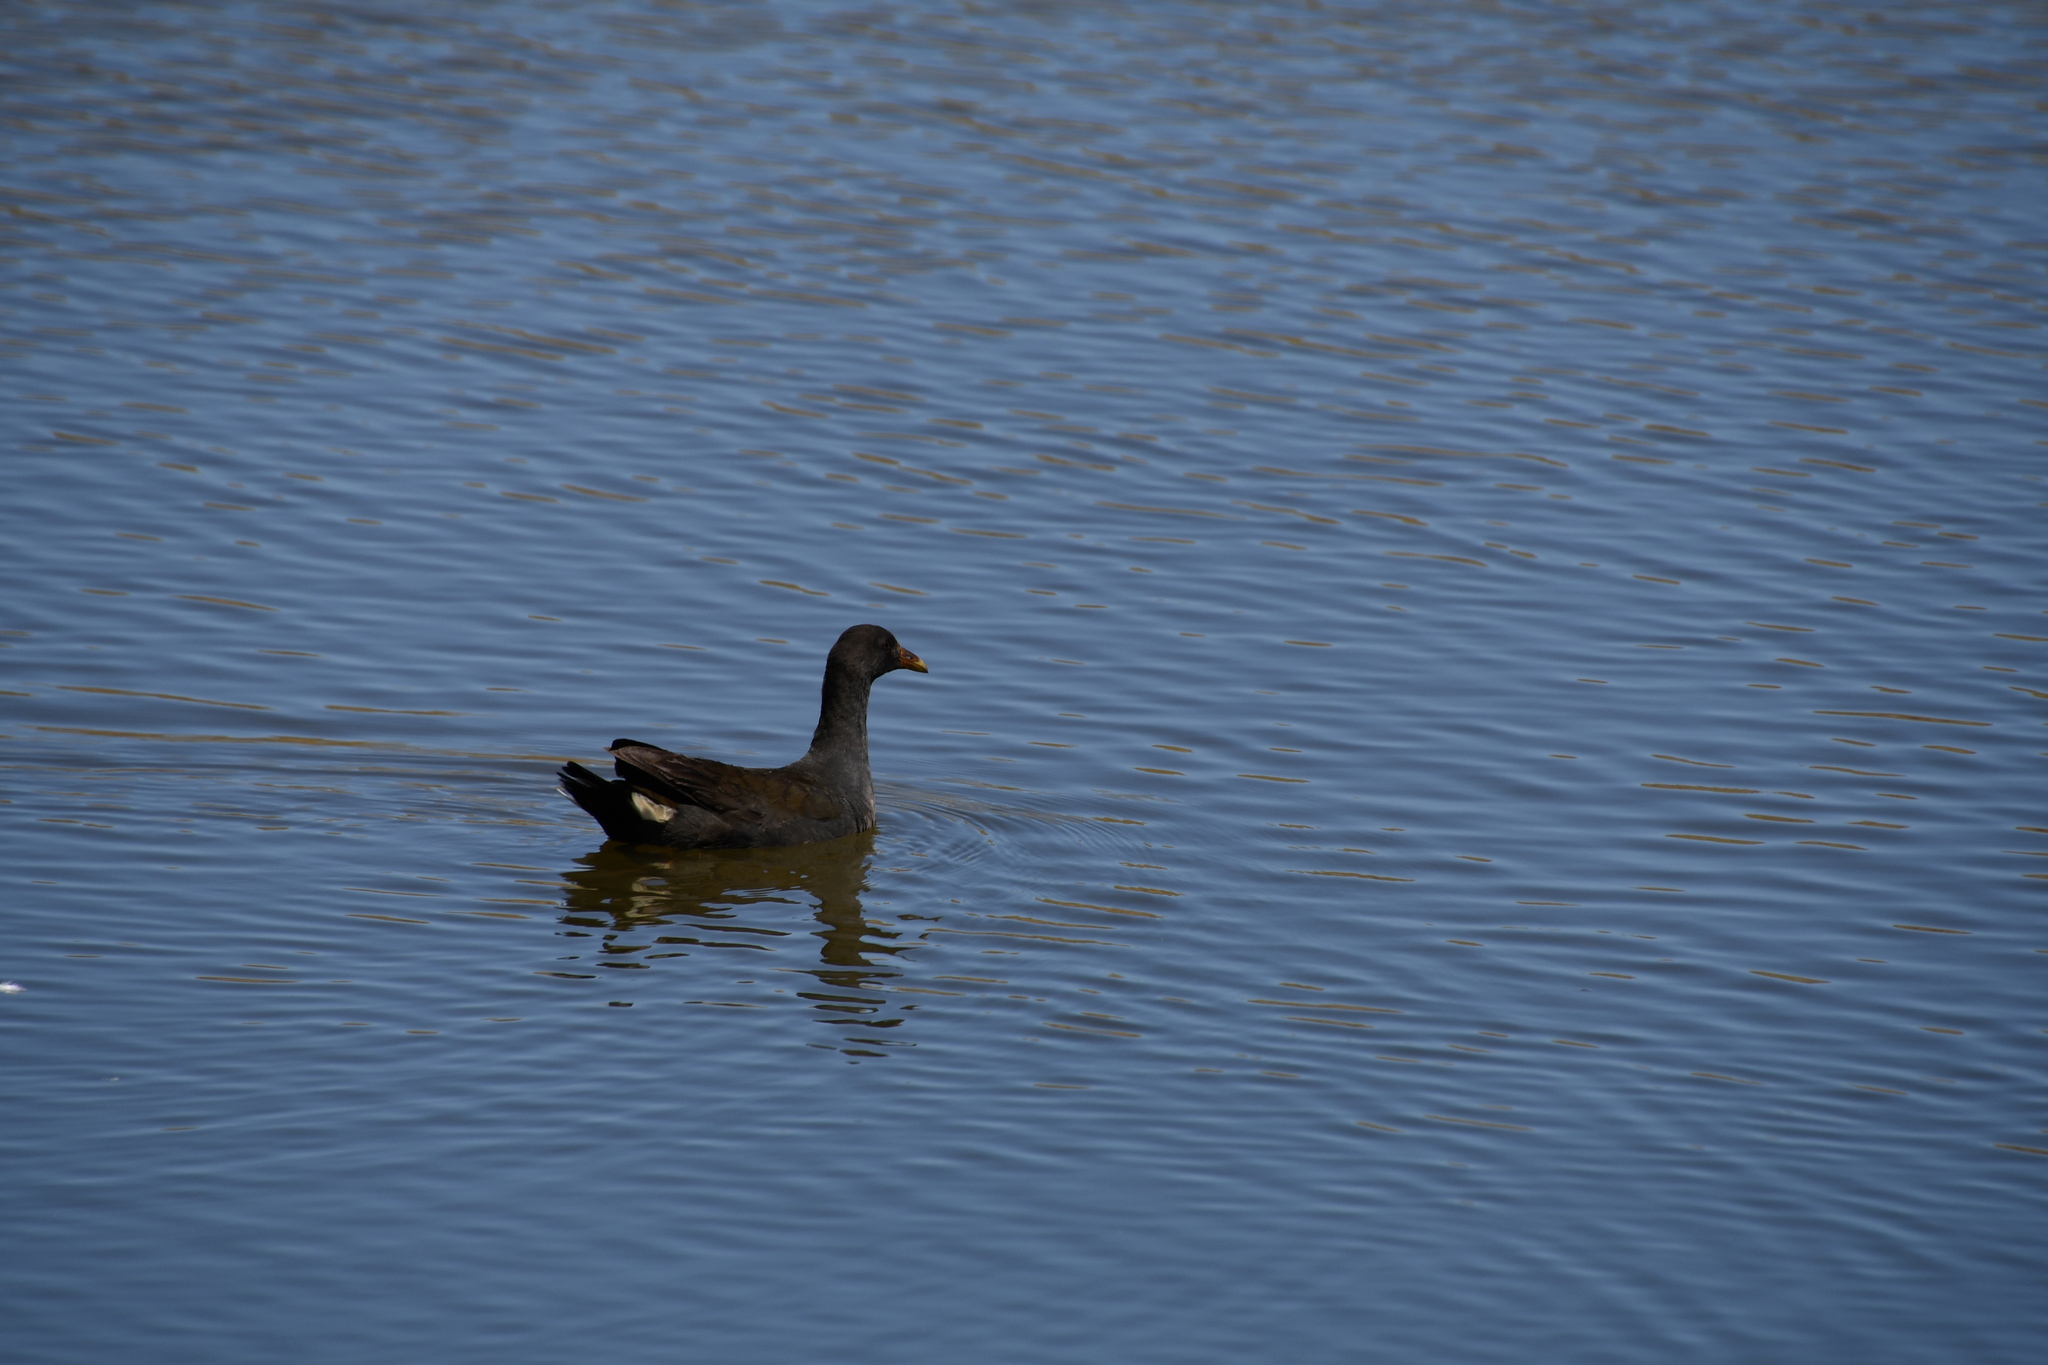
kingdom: Animalia
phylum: Chordata
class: Aves
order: Gruiformes
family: Rallidae
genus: Gallinula
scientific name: Gallinula tenebrosa
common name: Dusky moorhen
